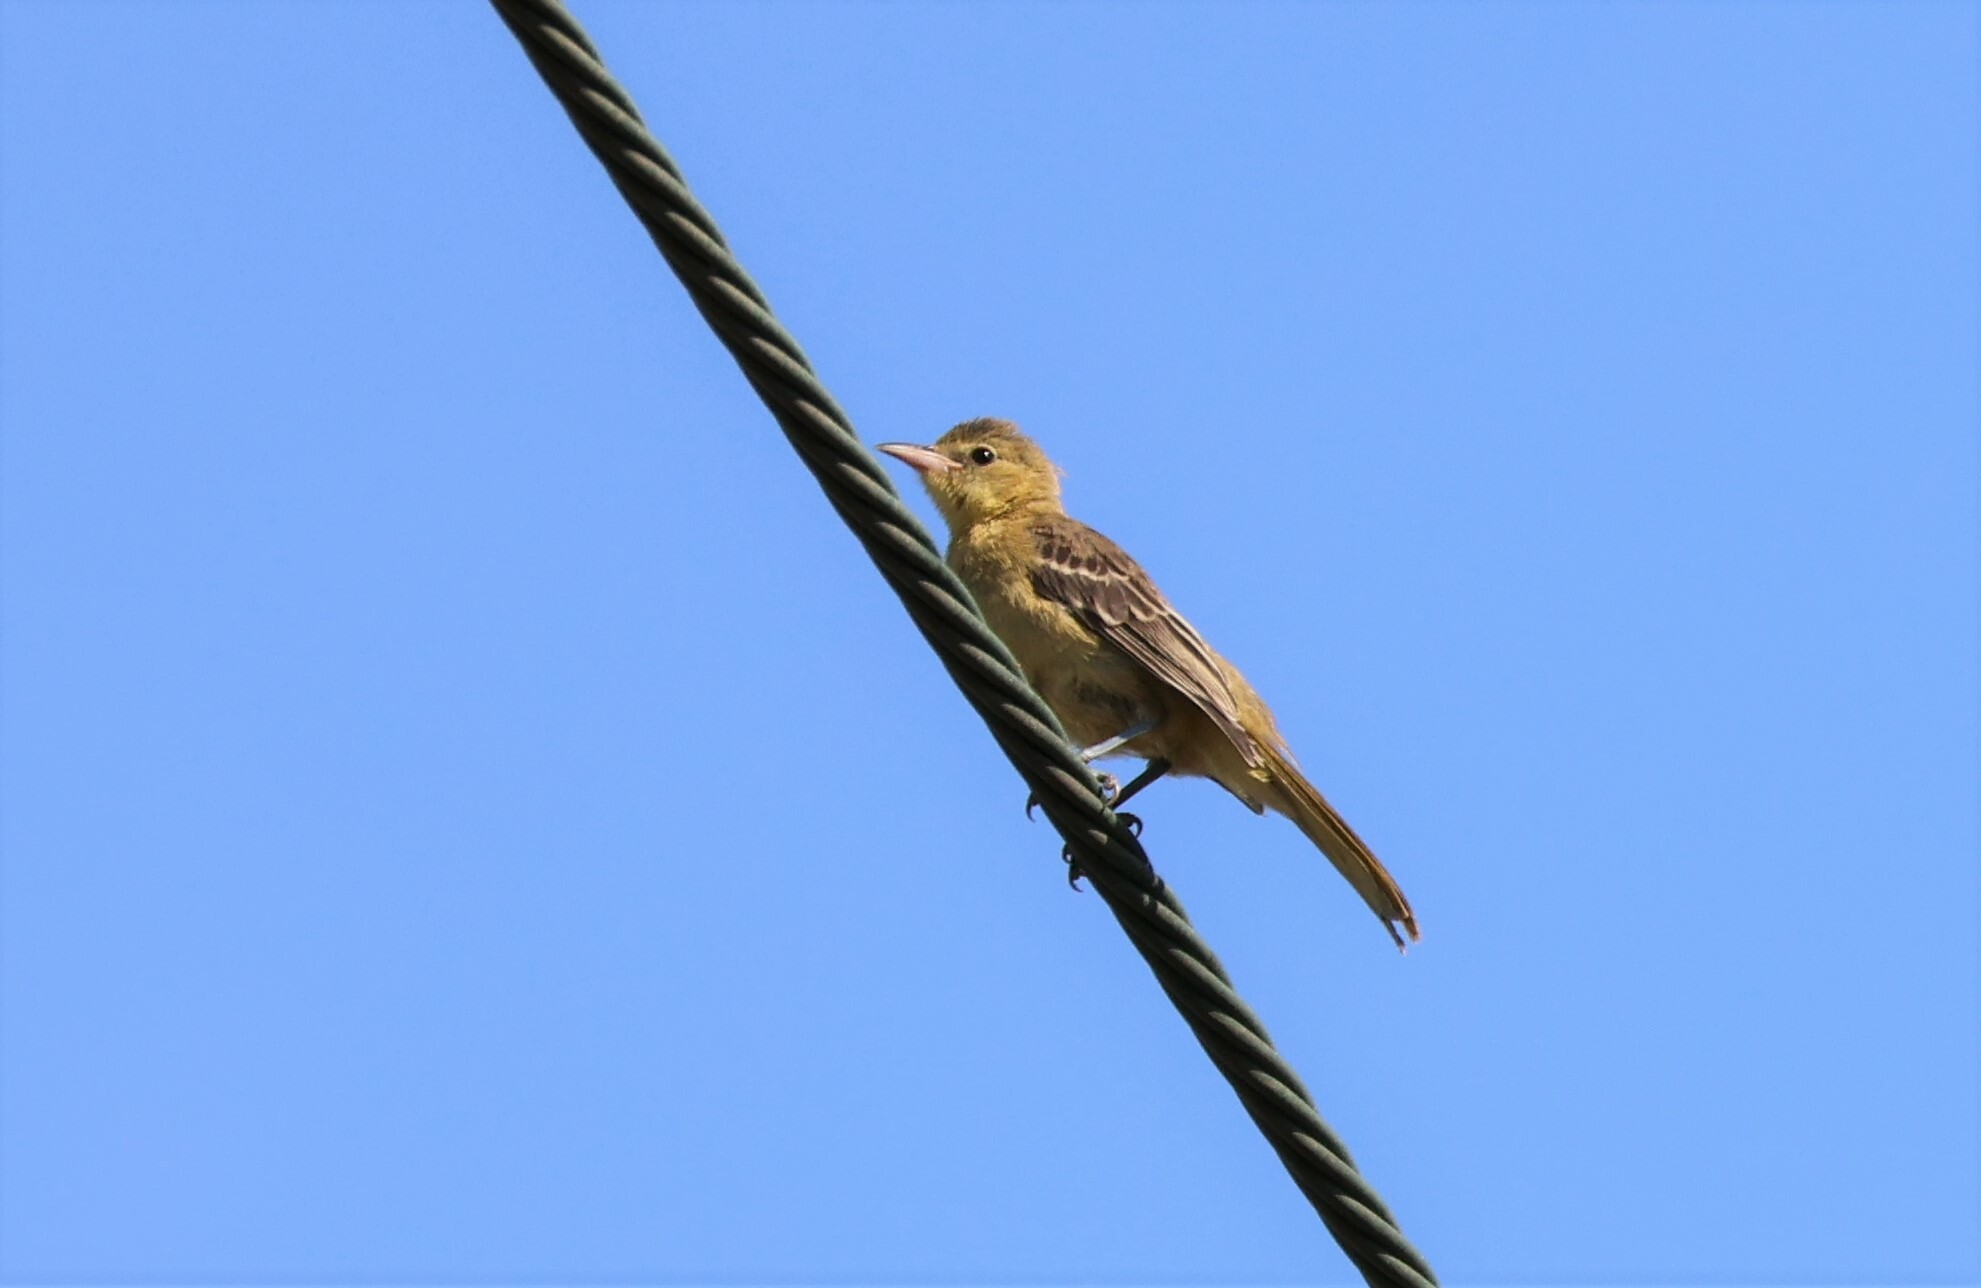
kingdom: Animalia
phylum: Chordata
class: Aves
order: Passeriformes
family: Icteridae
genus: Icterus
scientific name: Icterus cucullatus
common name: Hooded oriole
